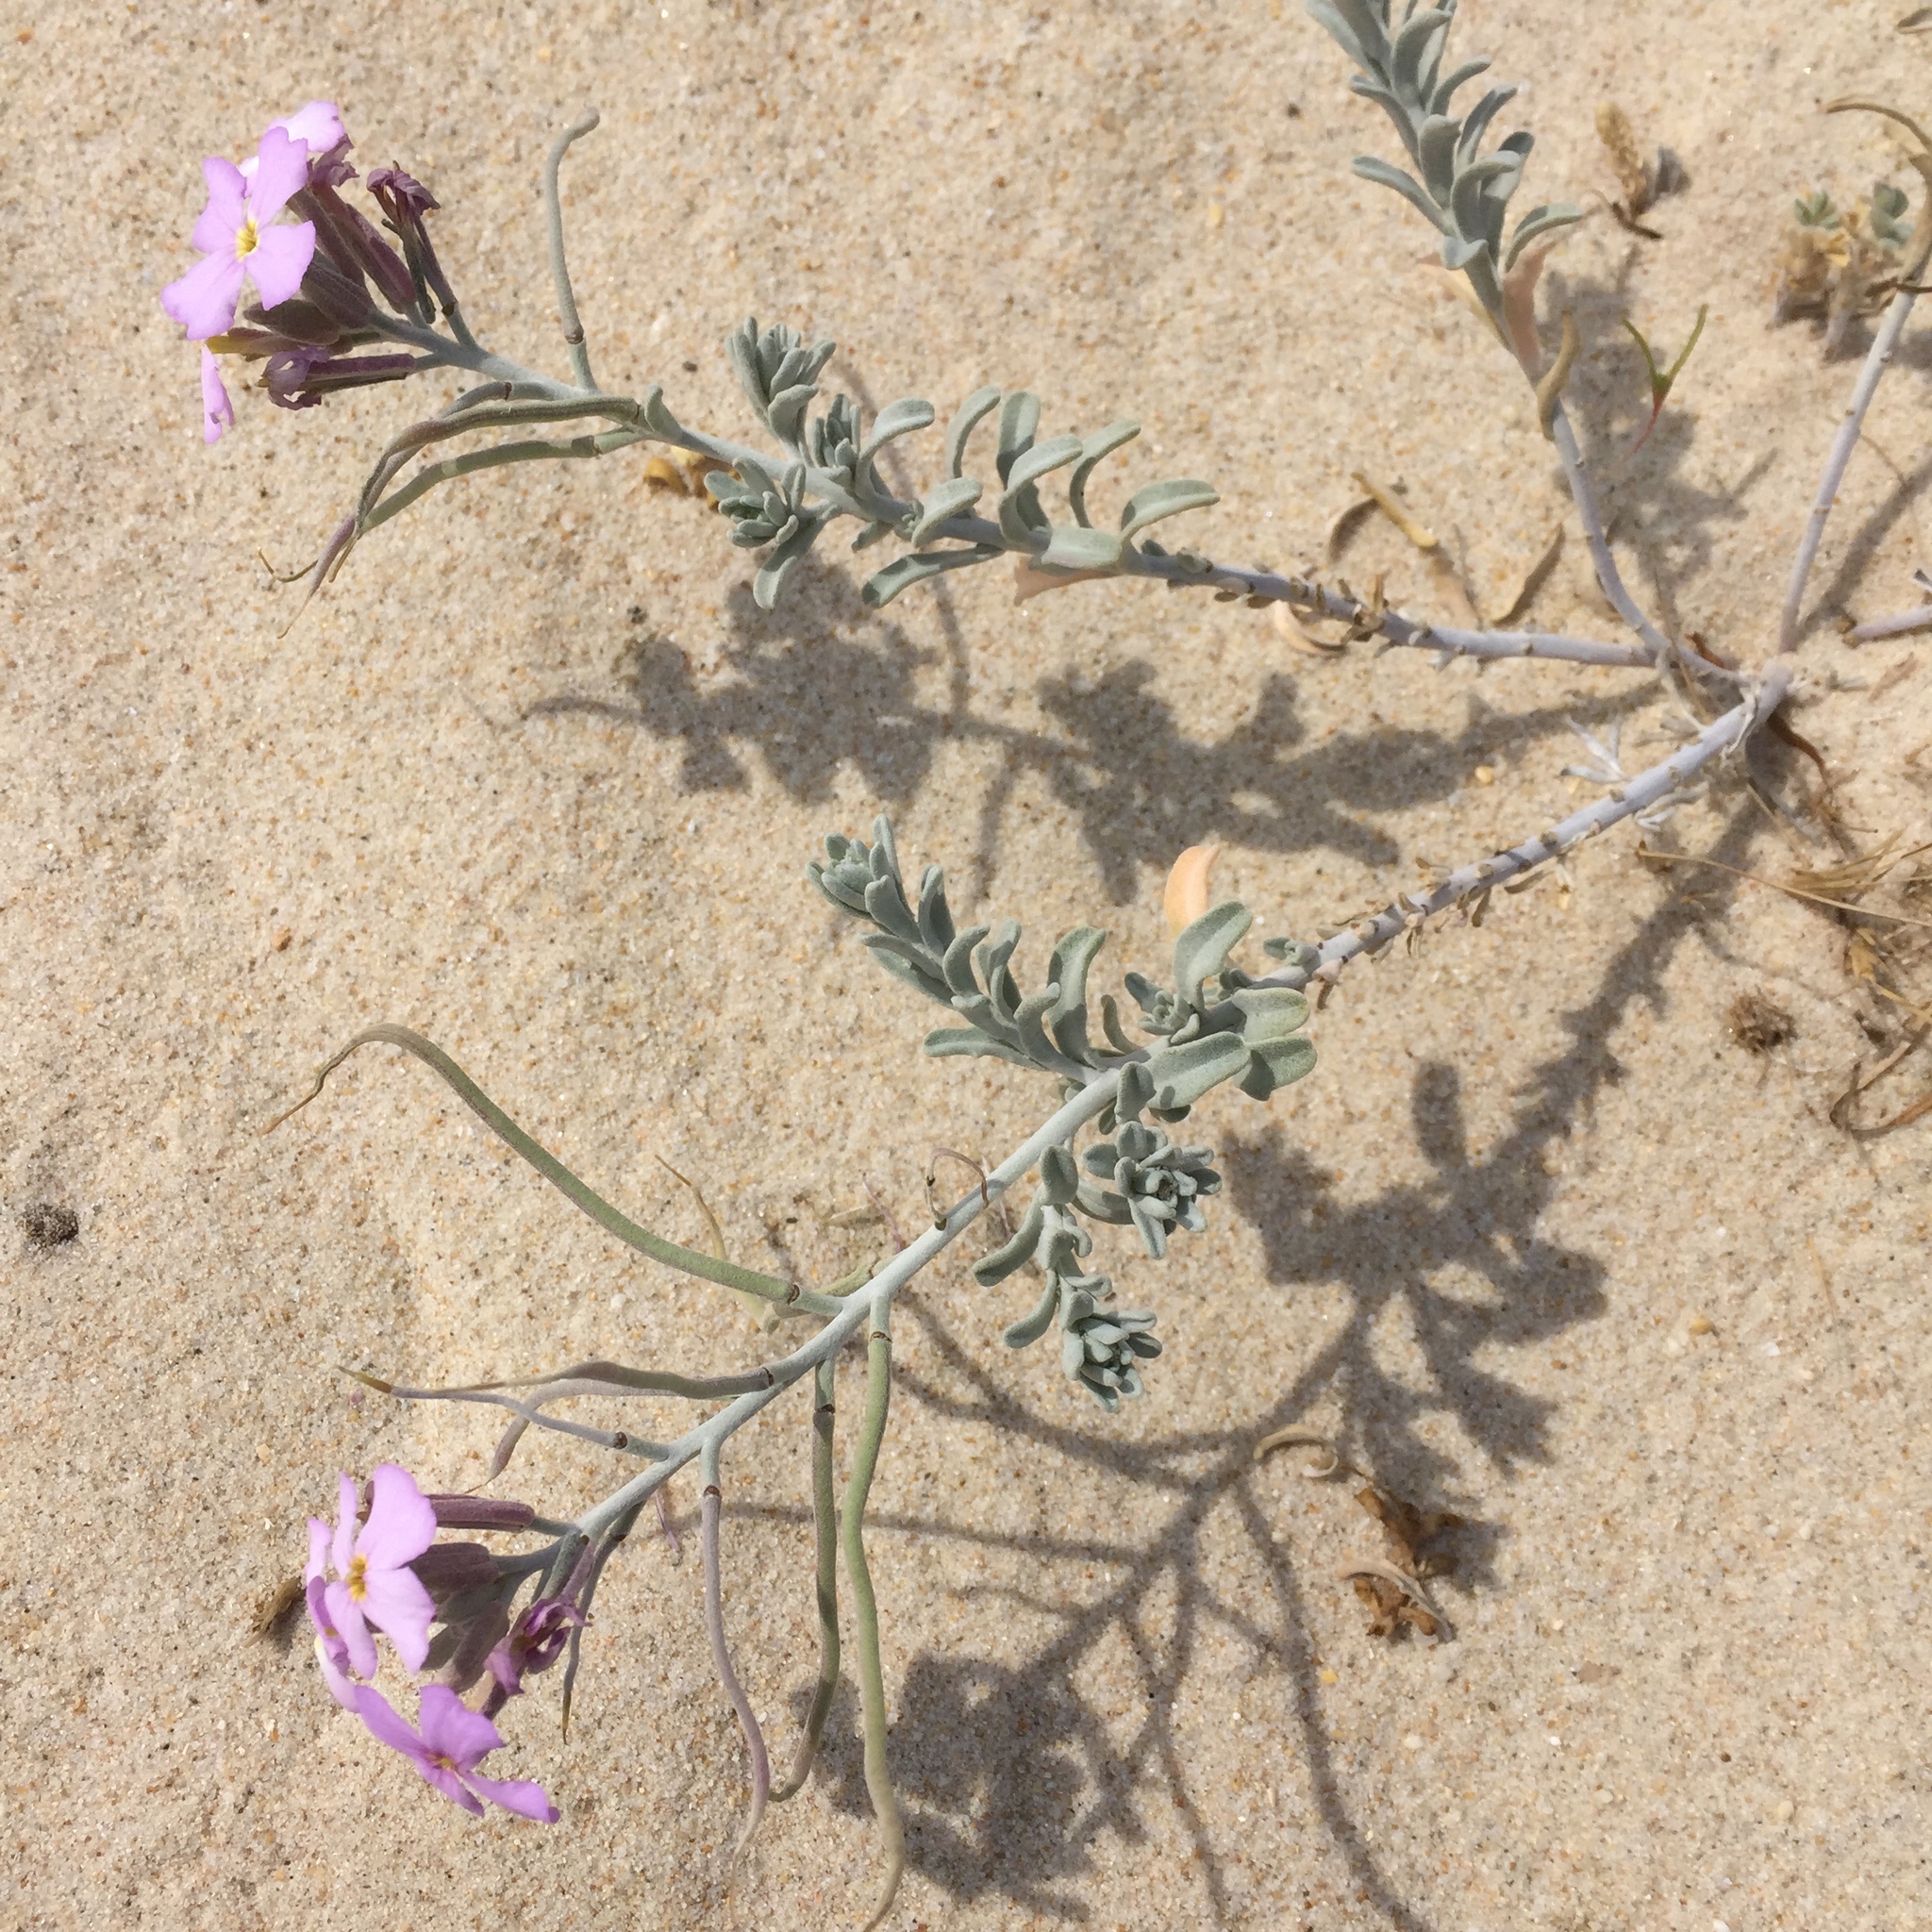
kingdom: Plantae
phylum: Tracheophyta
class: Magnoliopsida
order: Brassicales
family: Brassicaceae
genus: Marcuskochia
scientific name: Marcuskochia littorea
